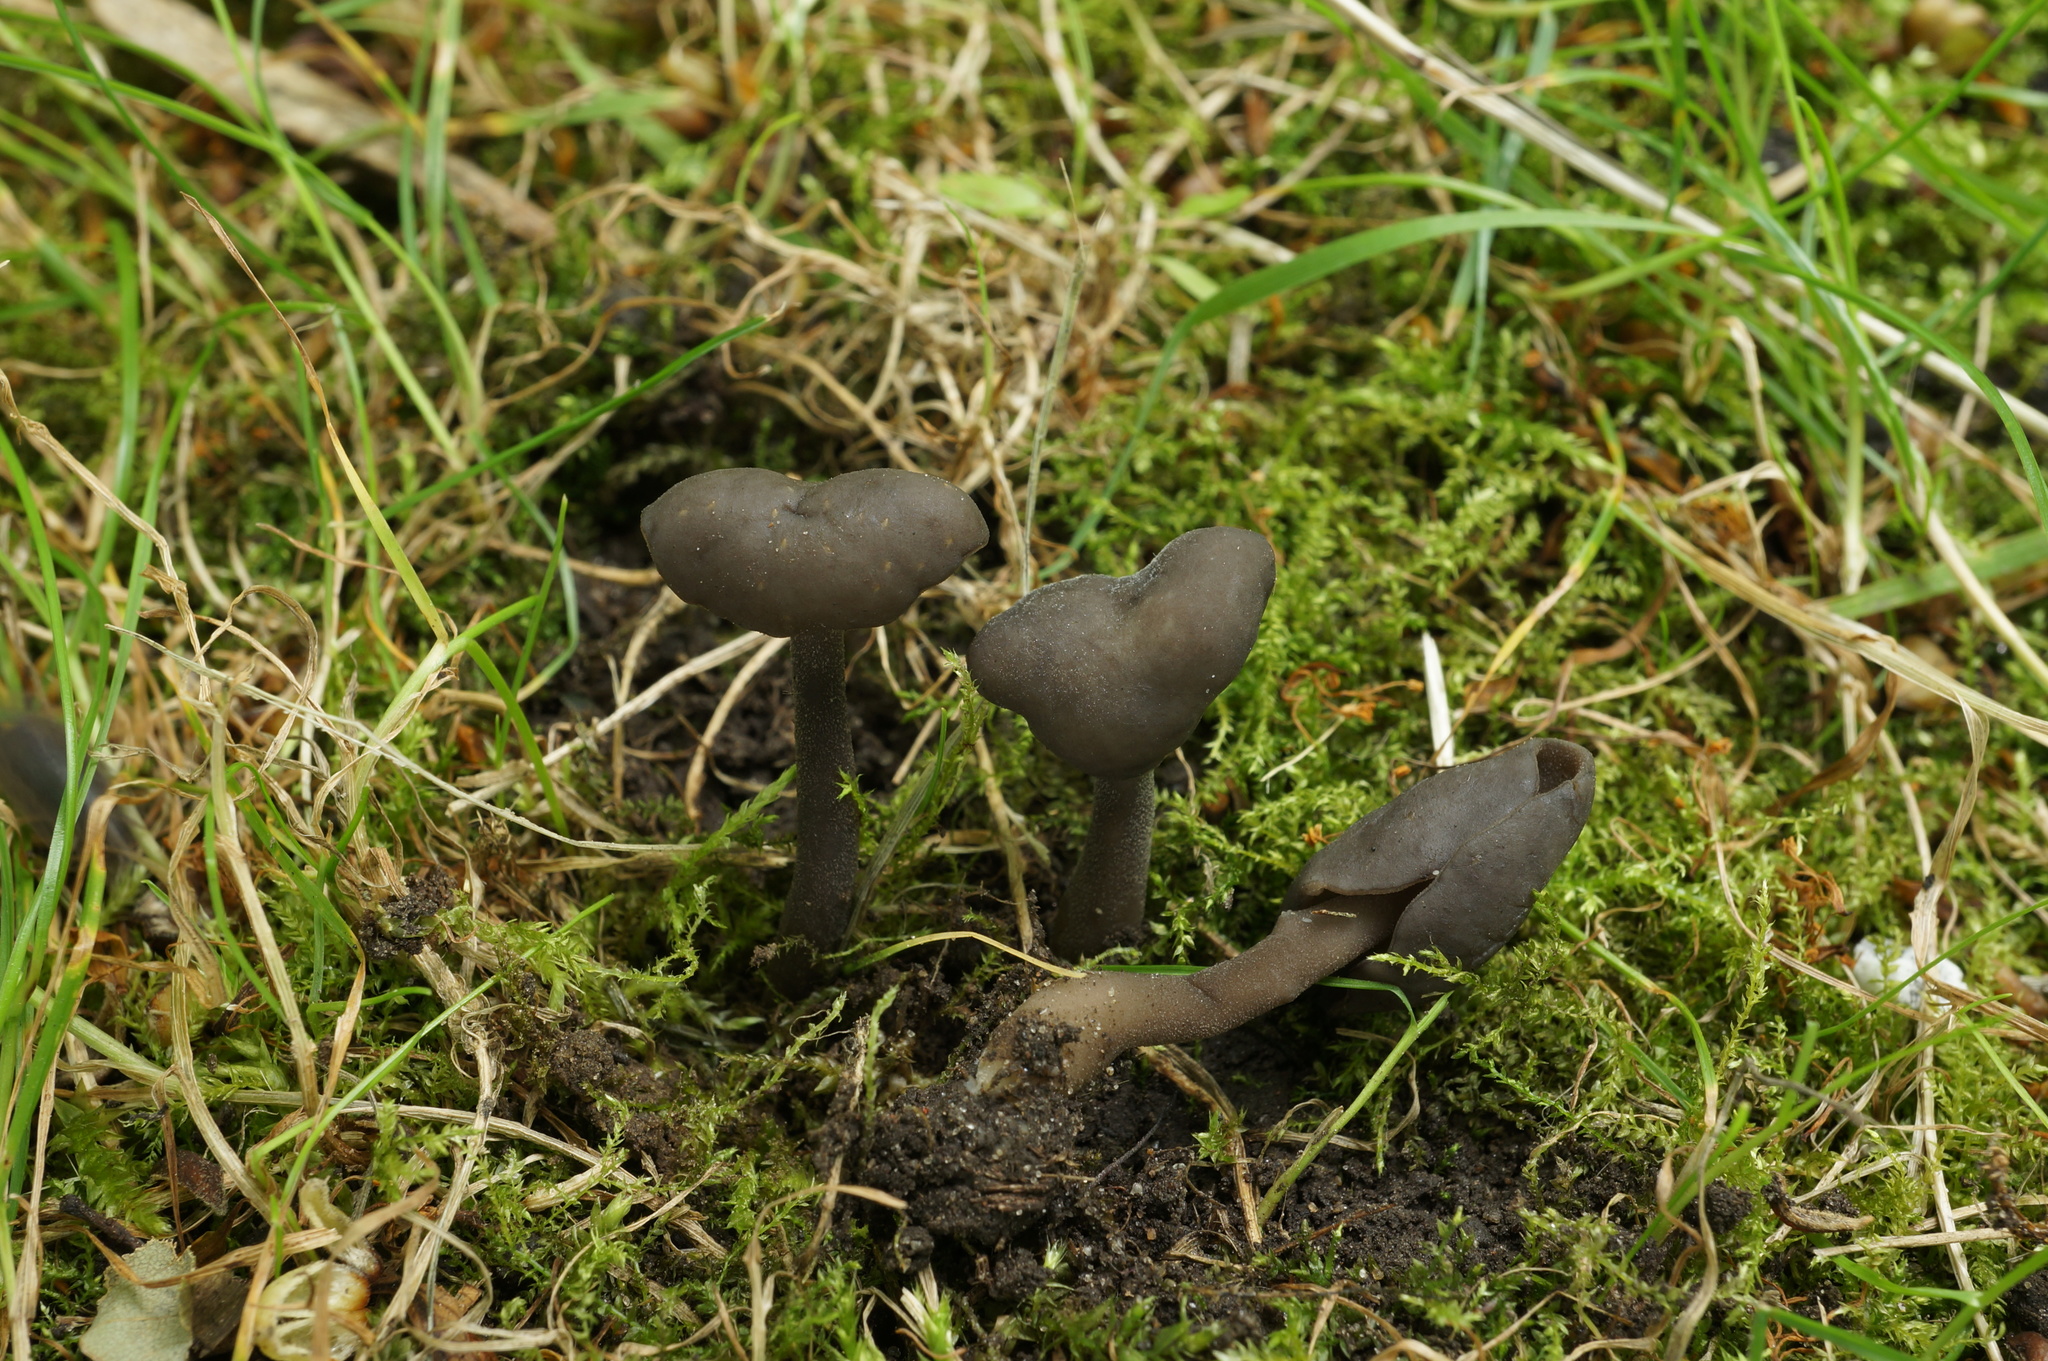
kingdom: Fungi
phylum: Ascomycota
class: Pezizomycetes
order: Pezizales
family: Helvellaceae
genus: Helvella
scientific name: Helvella atra
